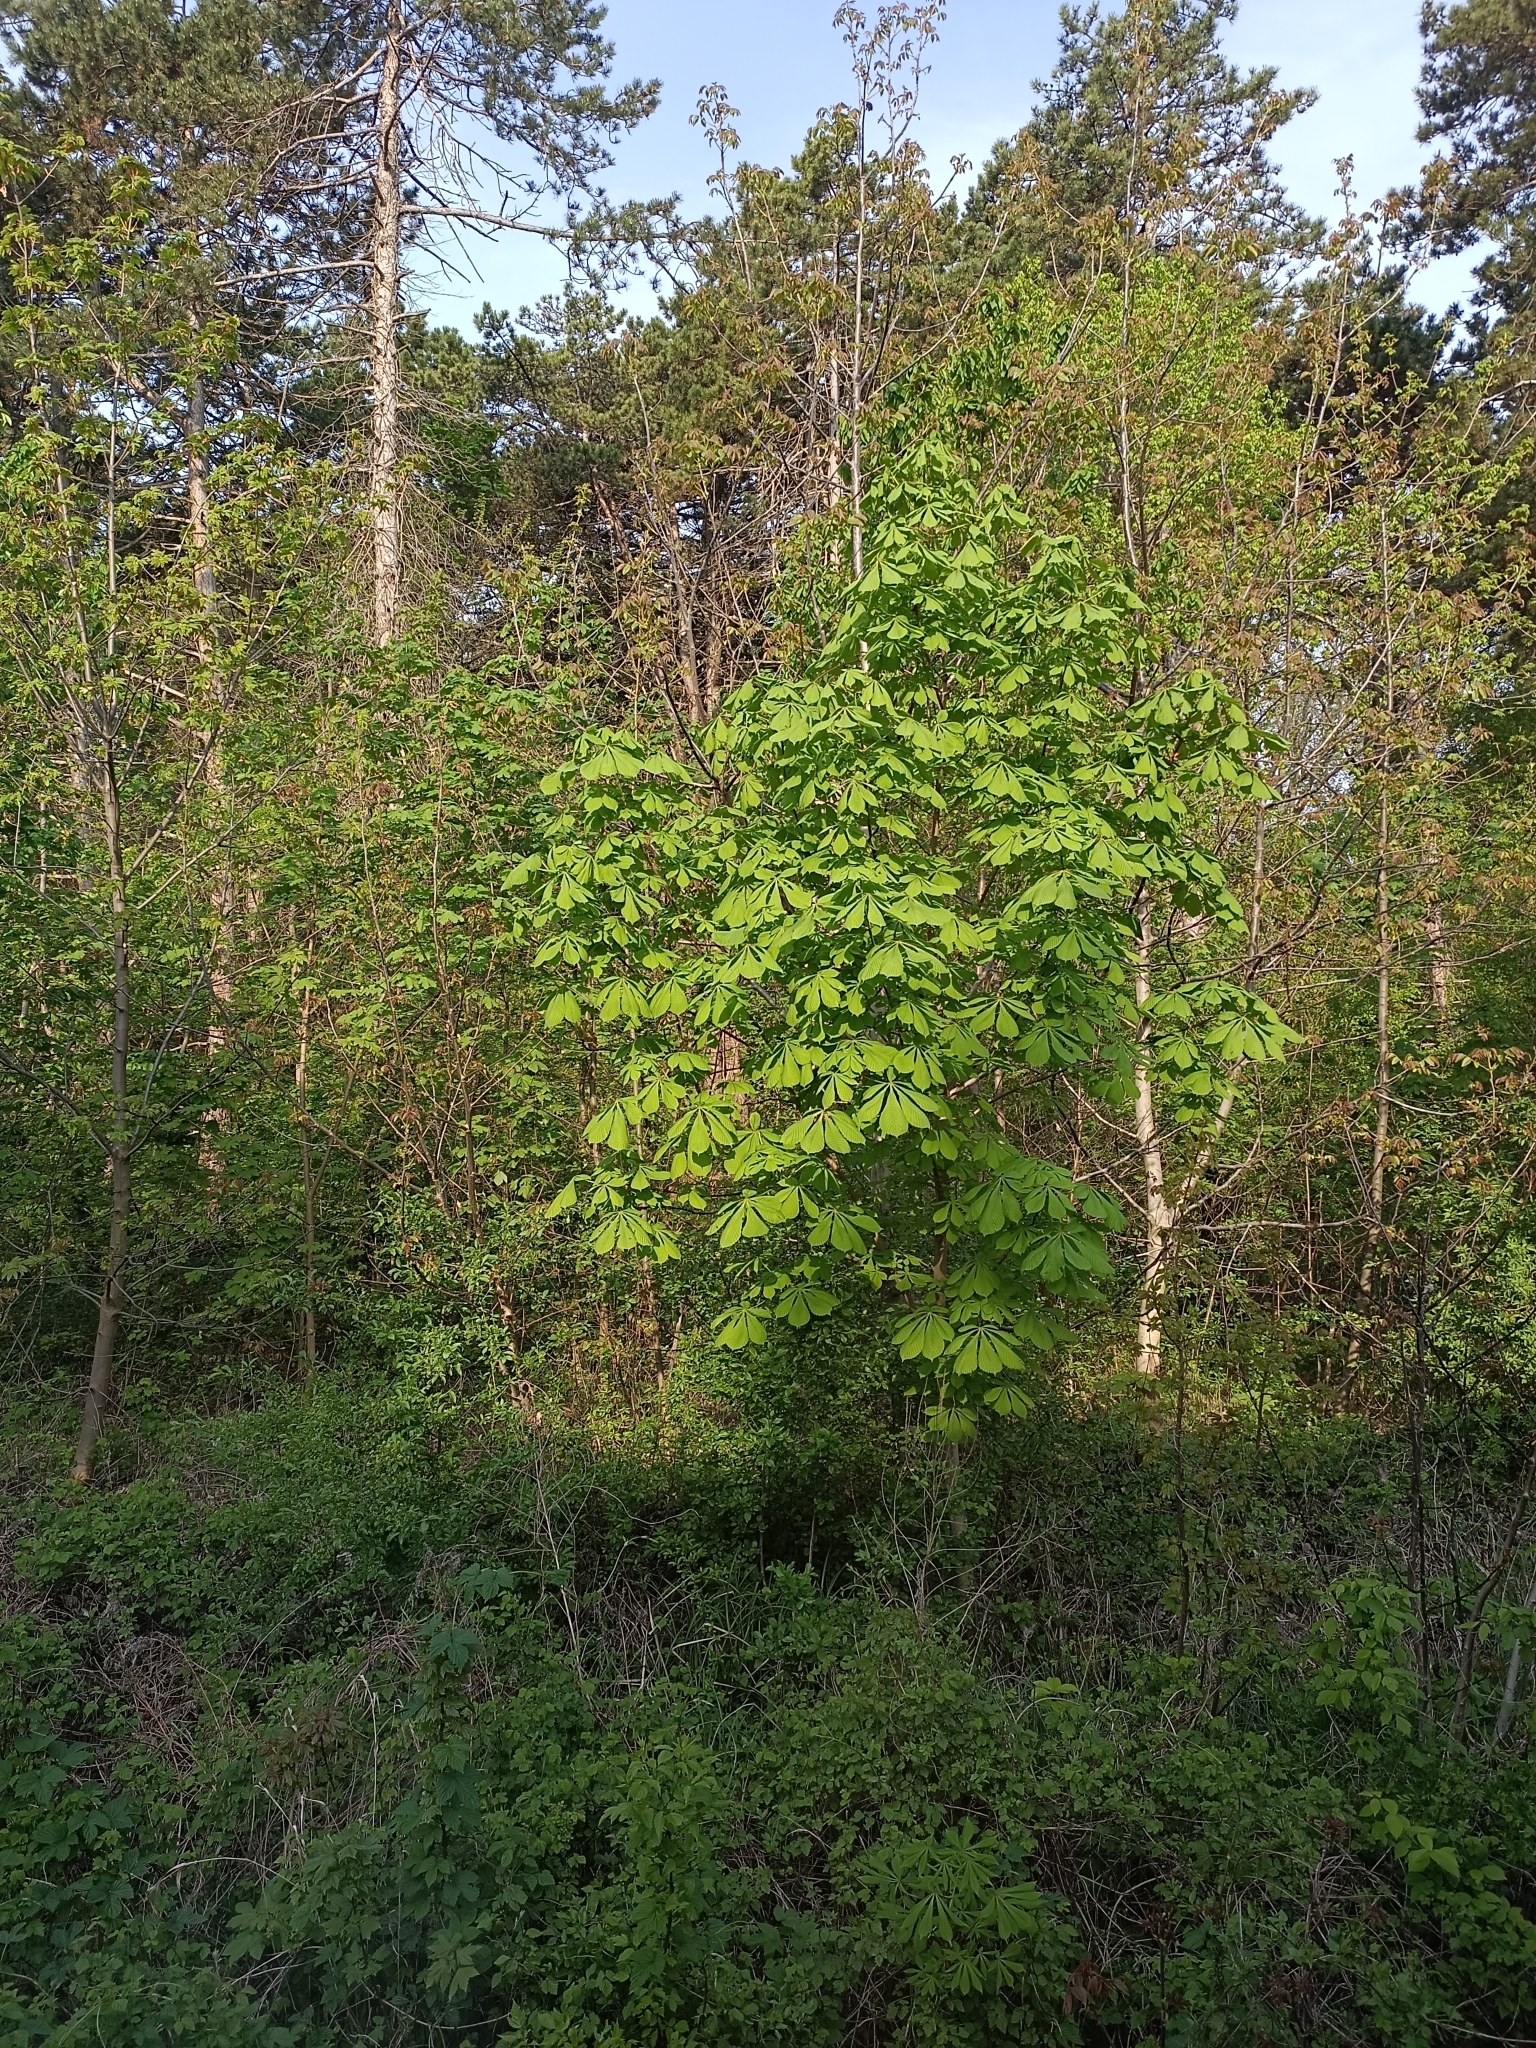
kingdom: Plantae
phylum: Tracheophyta
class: Magnoliopsida
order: Sapindales
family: Sapindaceae
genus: Aesculus
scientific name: Aesculus hippocastanum
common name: Horse-chestnut
